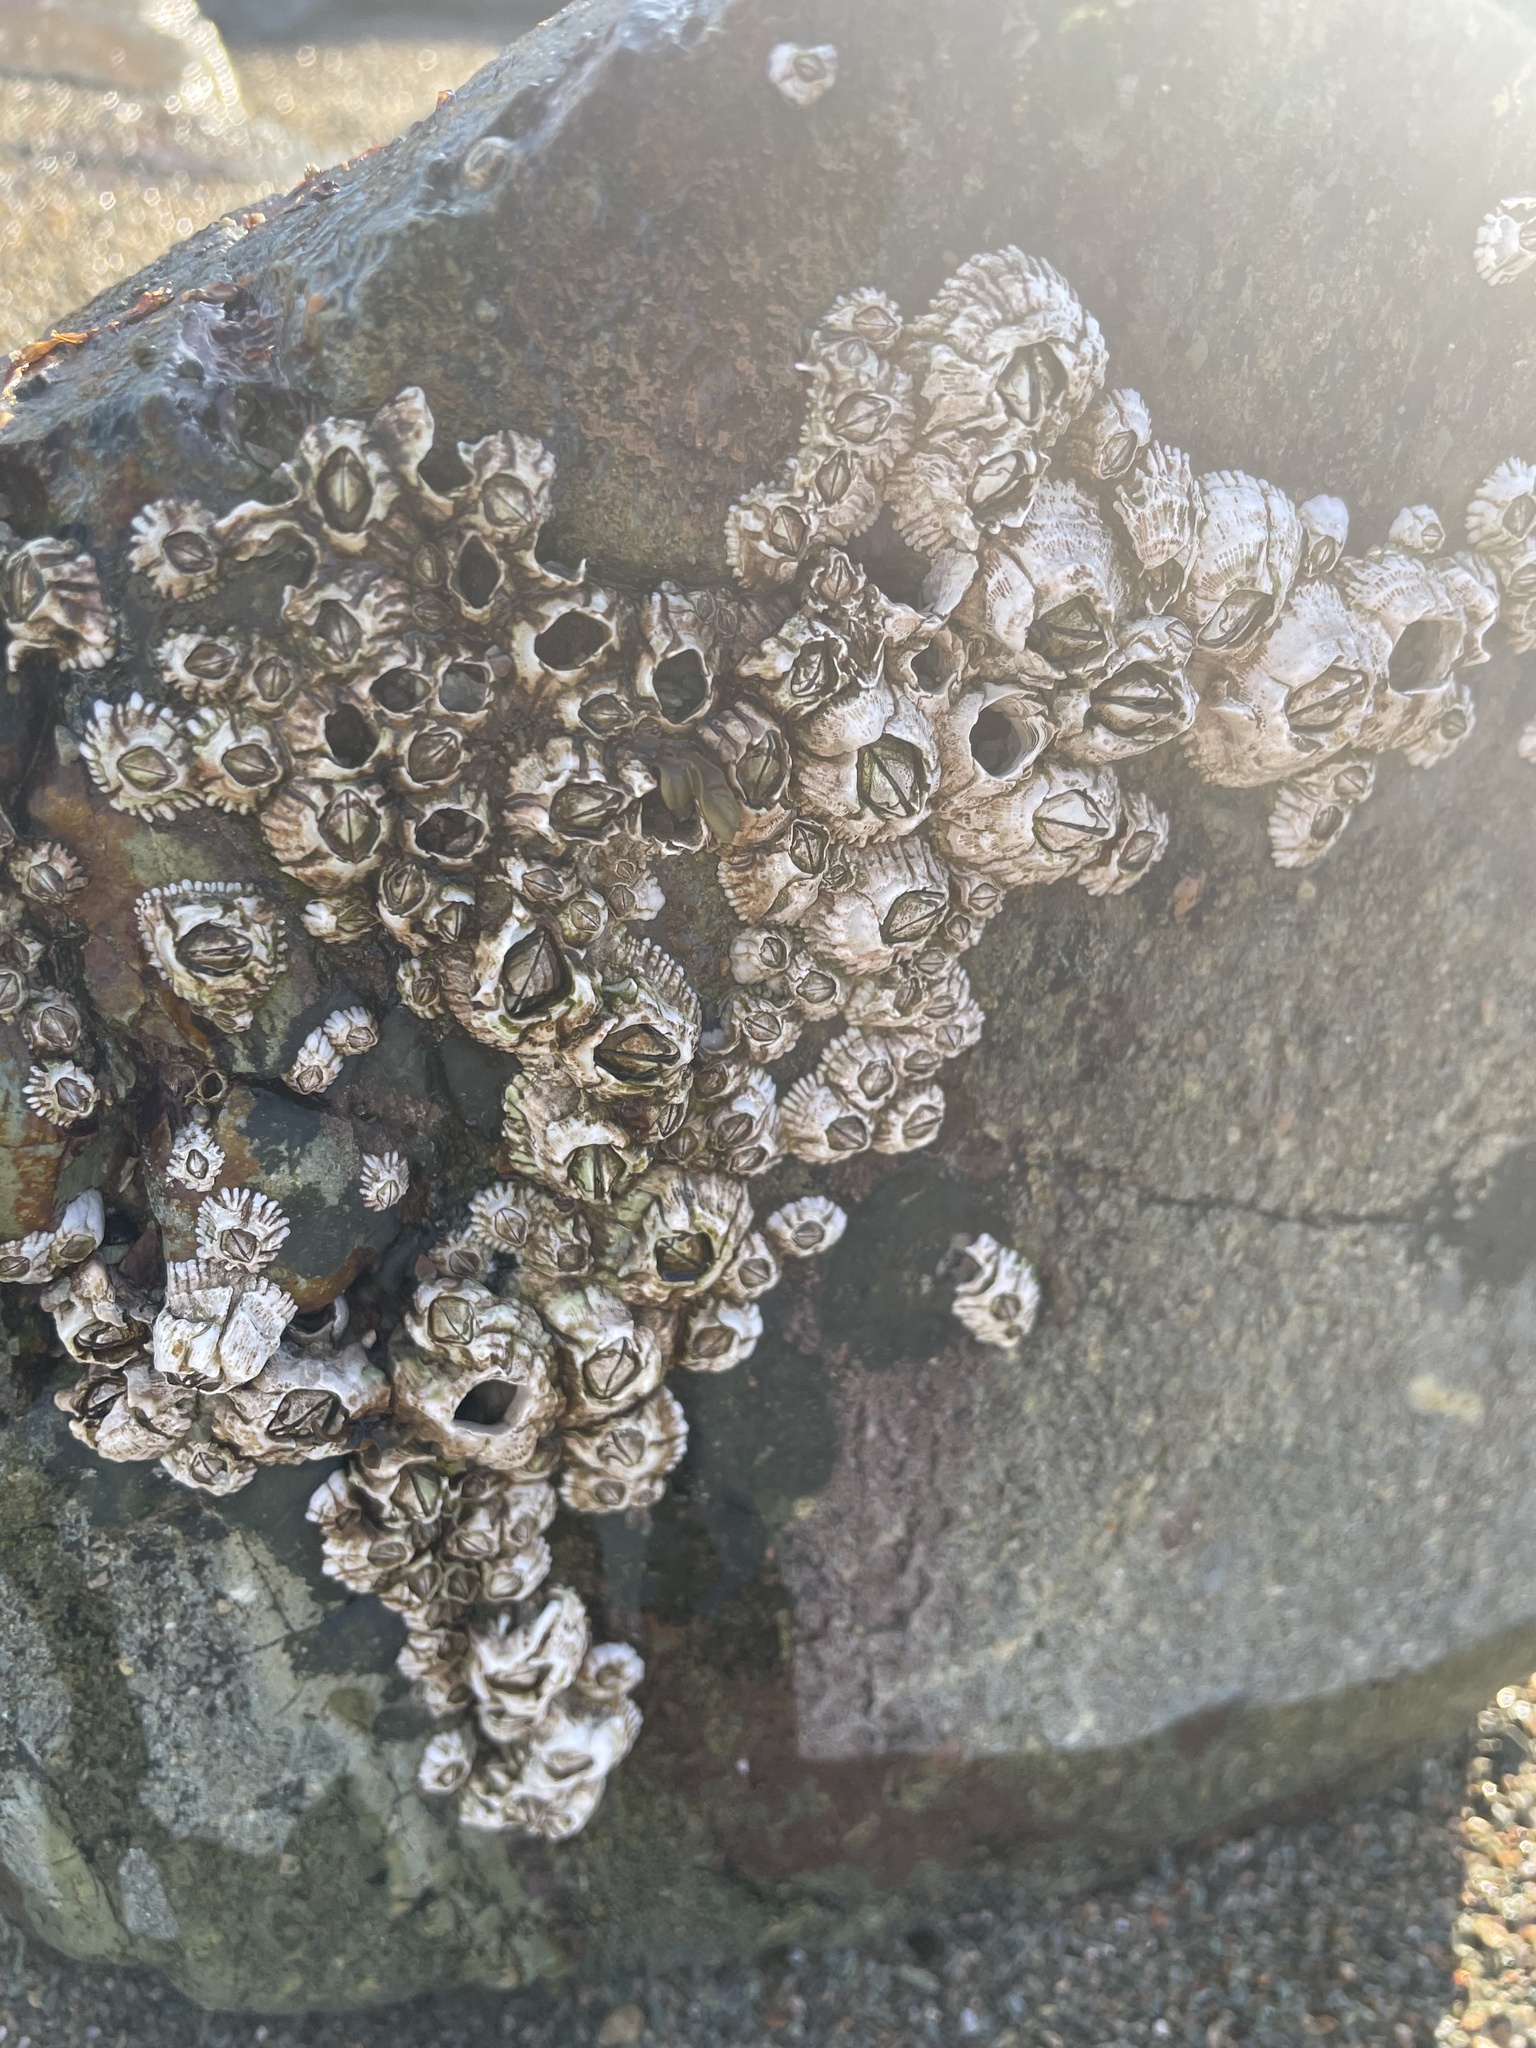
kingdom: Animalia
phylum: Arthropoda
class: Maxillopoda
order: Sessilia
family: Archaeobalanidae
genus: Semibalanus
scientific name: Semibalanus balanoides
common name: Acorn barnacle
